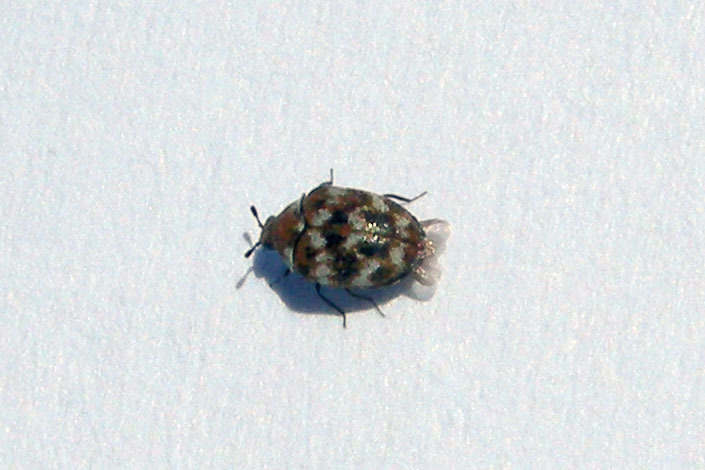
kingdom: Animalia
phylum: Arthropoda
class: Insecta
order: Coleoptera
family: Dermestidae
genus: Anthrenus
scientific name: Anthrenus verbasci
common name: Varied carpet beetle
